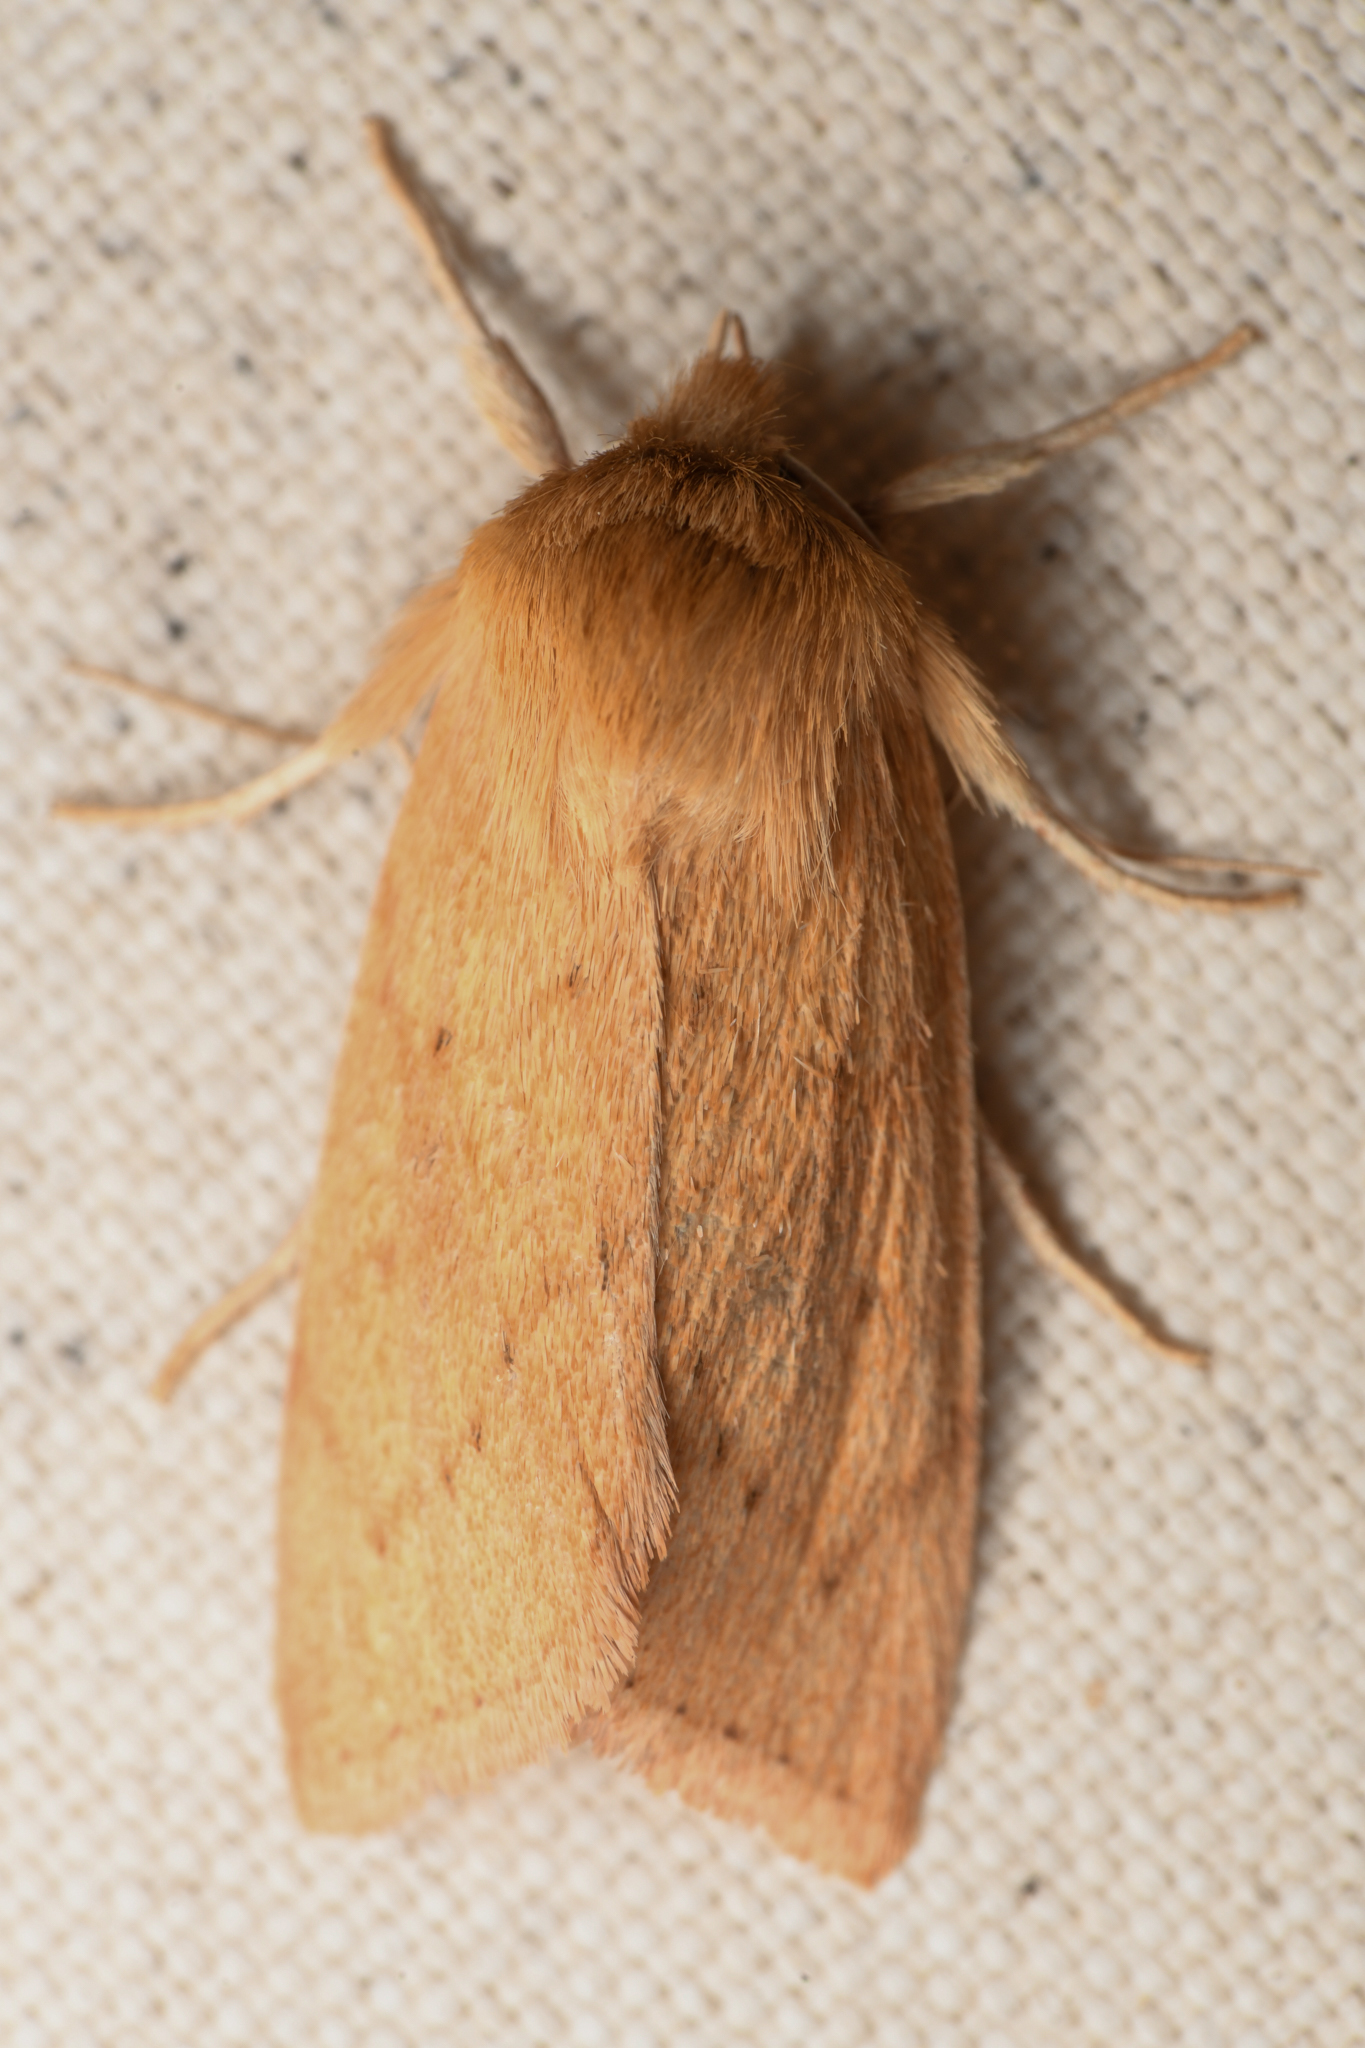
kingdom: Animalia
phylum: Arthropoda
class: Insecta
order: Lepidoptera
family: Noctuidae
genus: Zosteropoda
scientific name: Zosteropoda hirtipes
